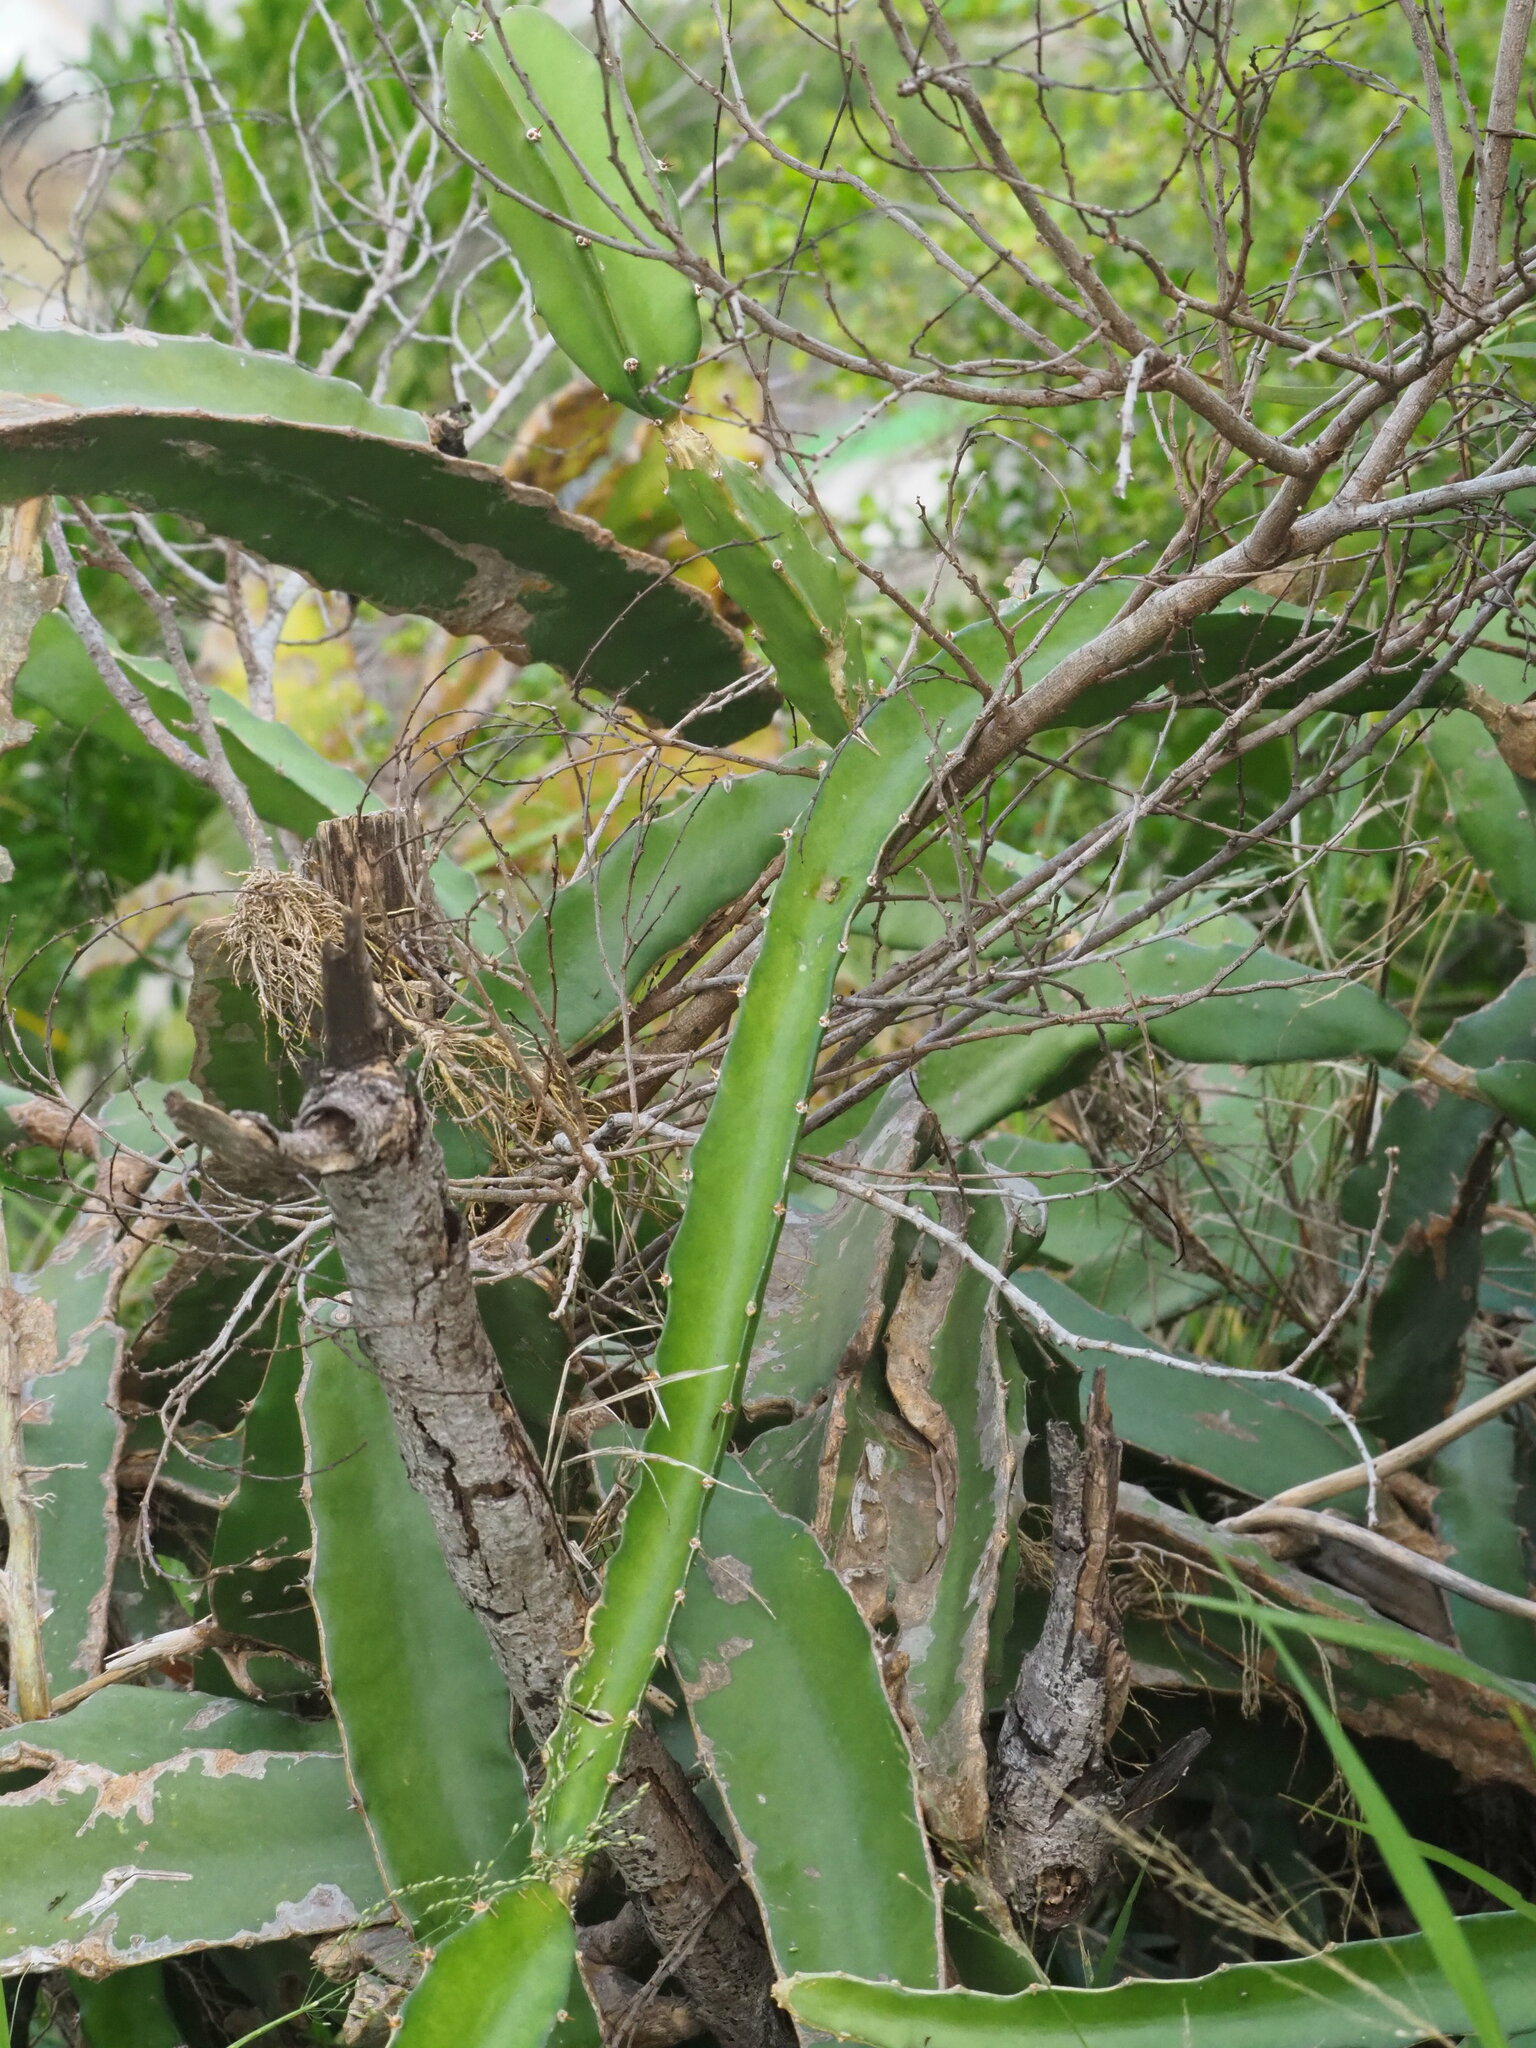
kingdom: Plantae
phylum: Tracheophyta
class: Magnoliopsida
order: Caryophyllales
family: Cactaceae
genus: Selenicereus
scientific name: Selenicereus undatus
